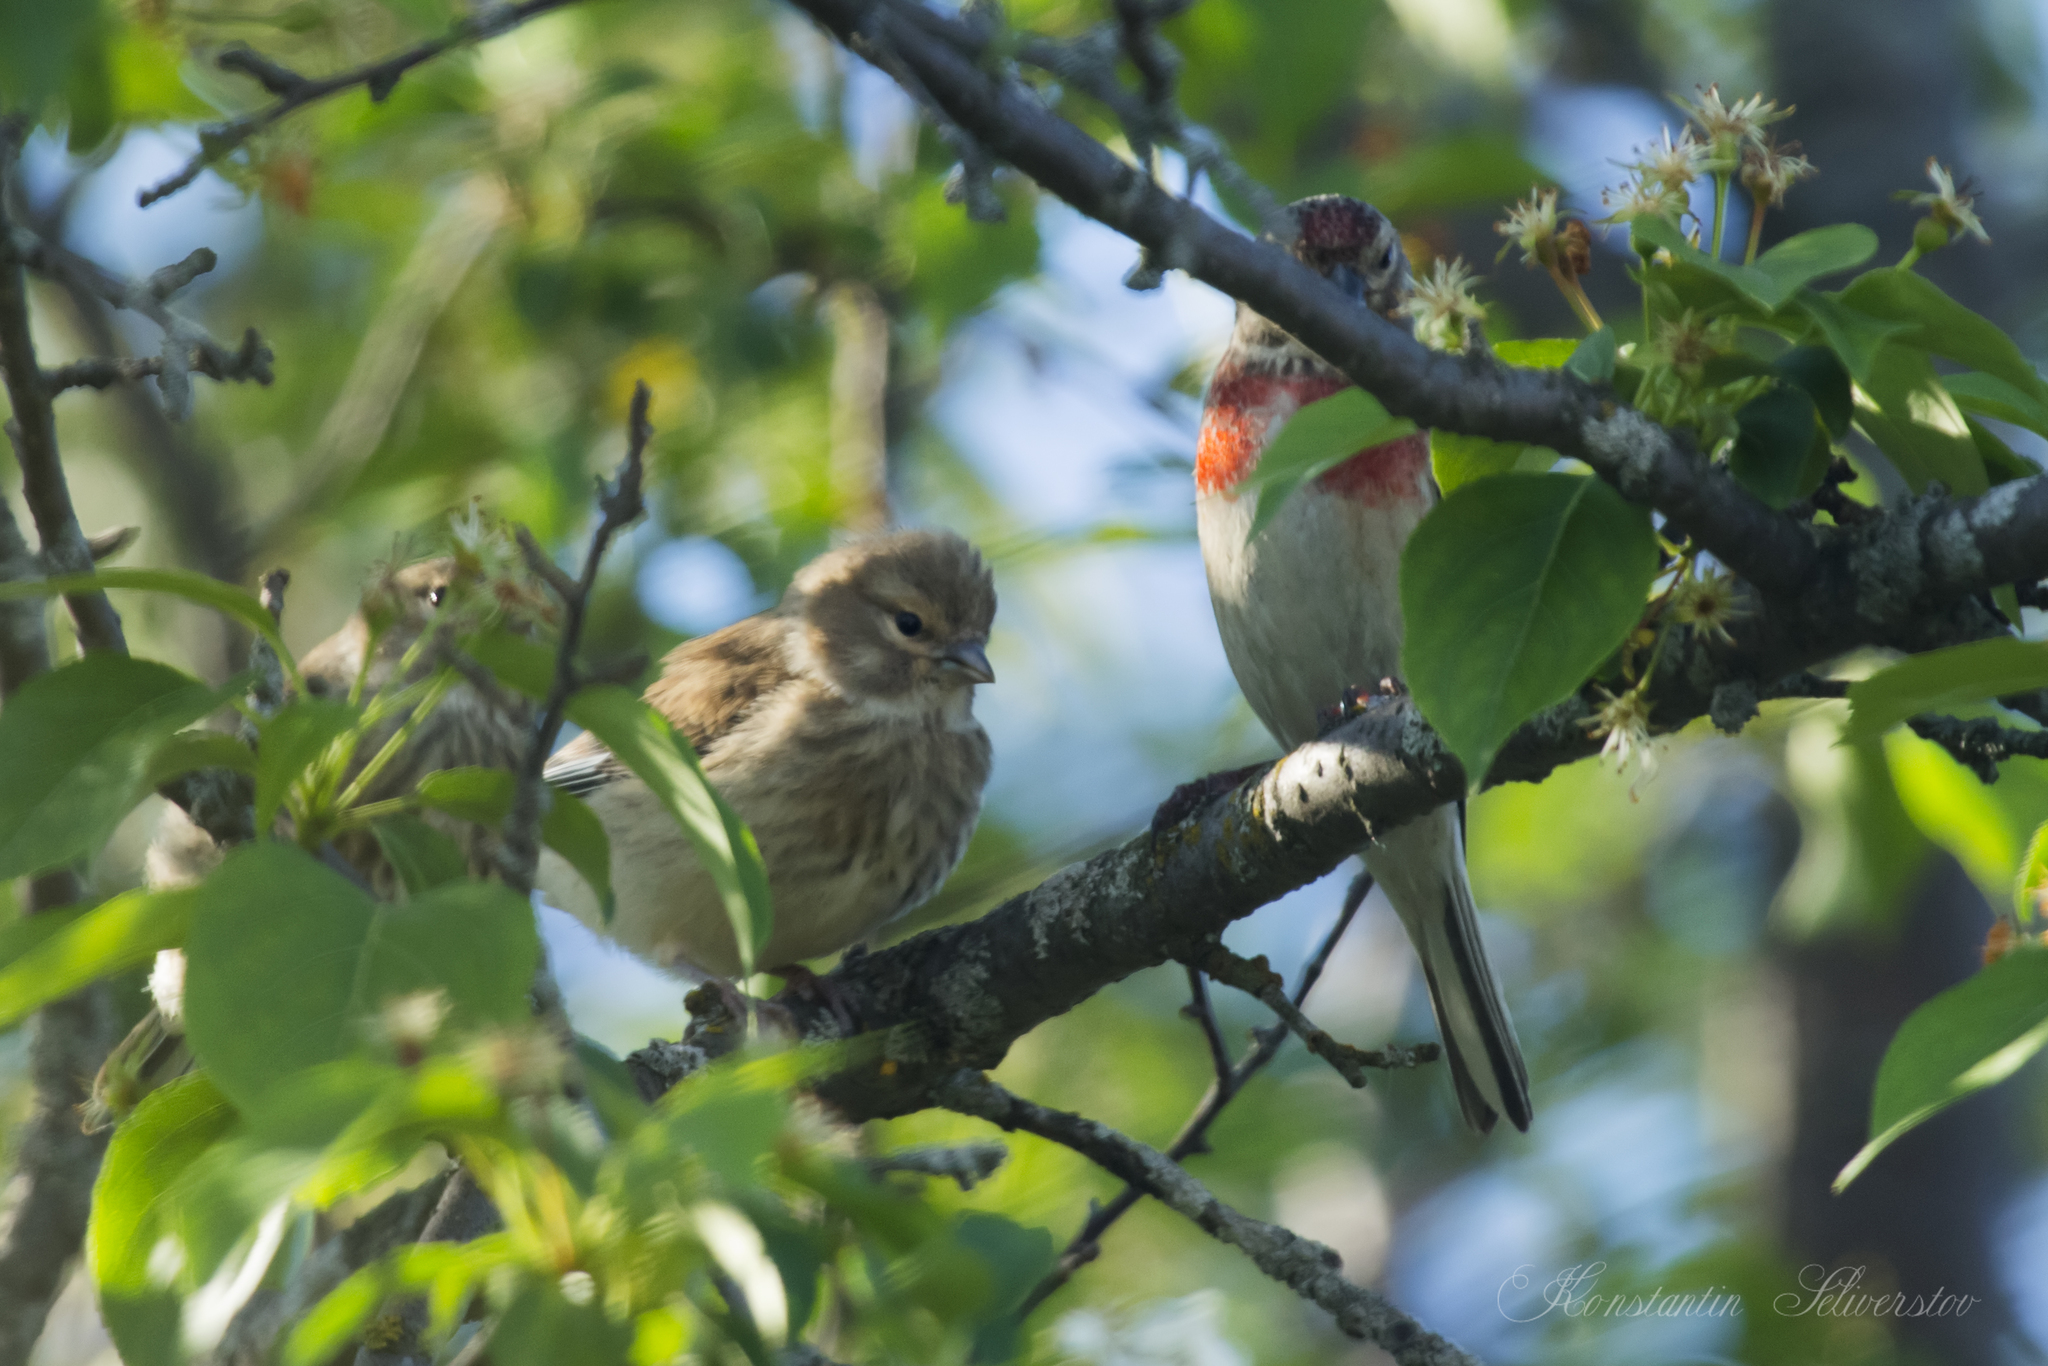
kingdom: Animalia
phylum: Chordata
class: Aves
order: Passeriformes
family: Fringillidae
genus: Linaria
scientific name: Linaria cannabina
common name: Common linnet
